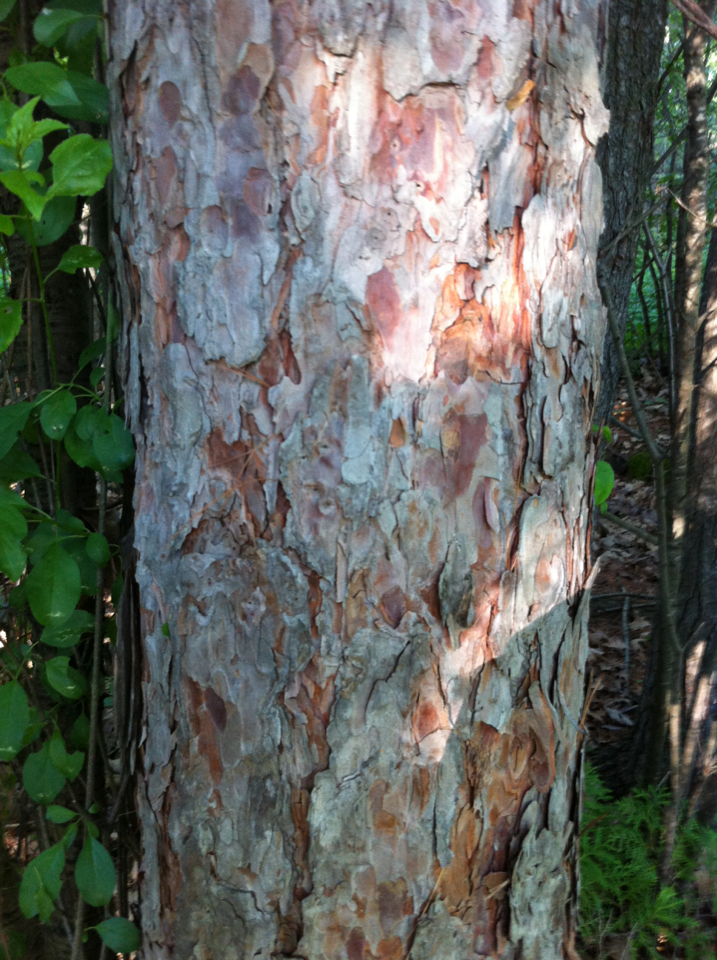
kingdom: Plantae
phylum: Tracheophyta
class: Pinopsida
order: Pinales
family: Pinaceae
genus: Pinus
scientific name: Pinus resinosa
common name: Norway pine
